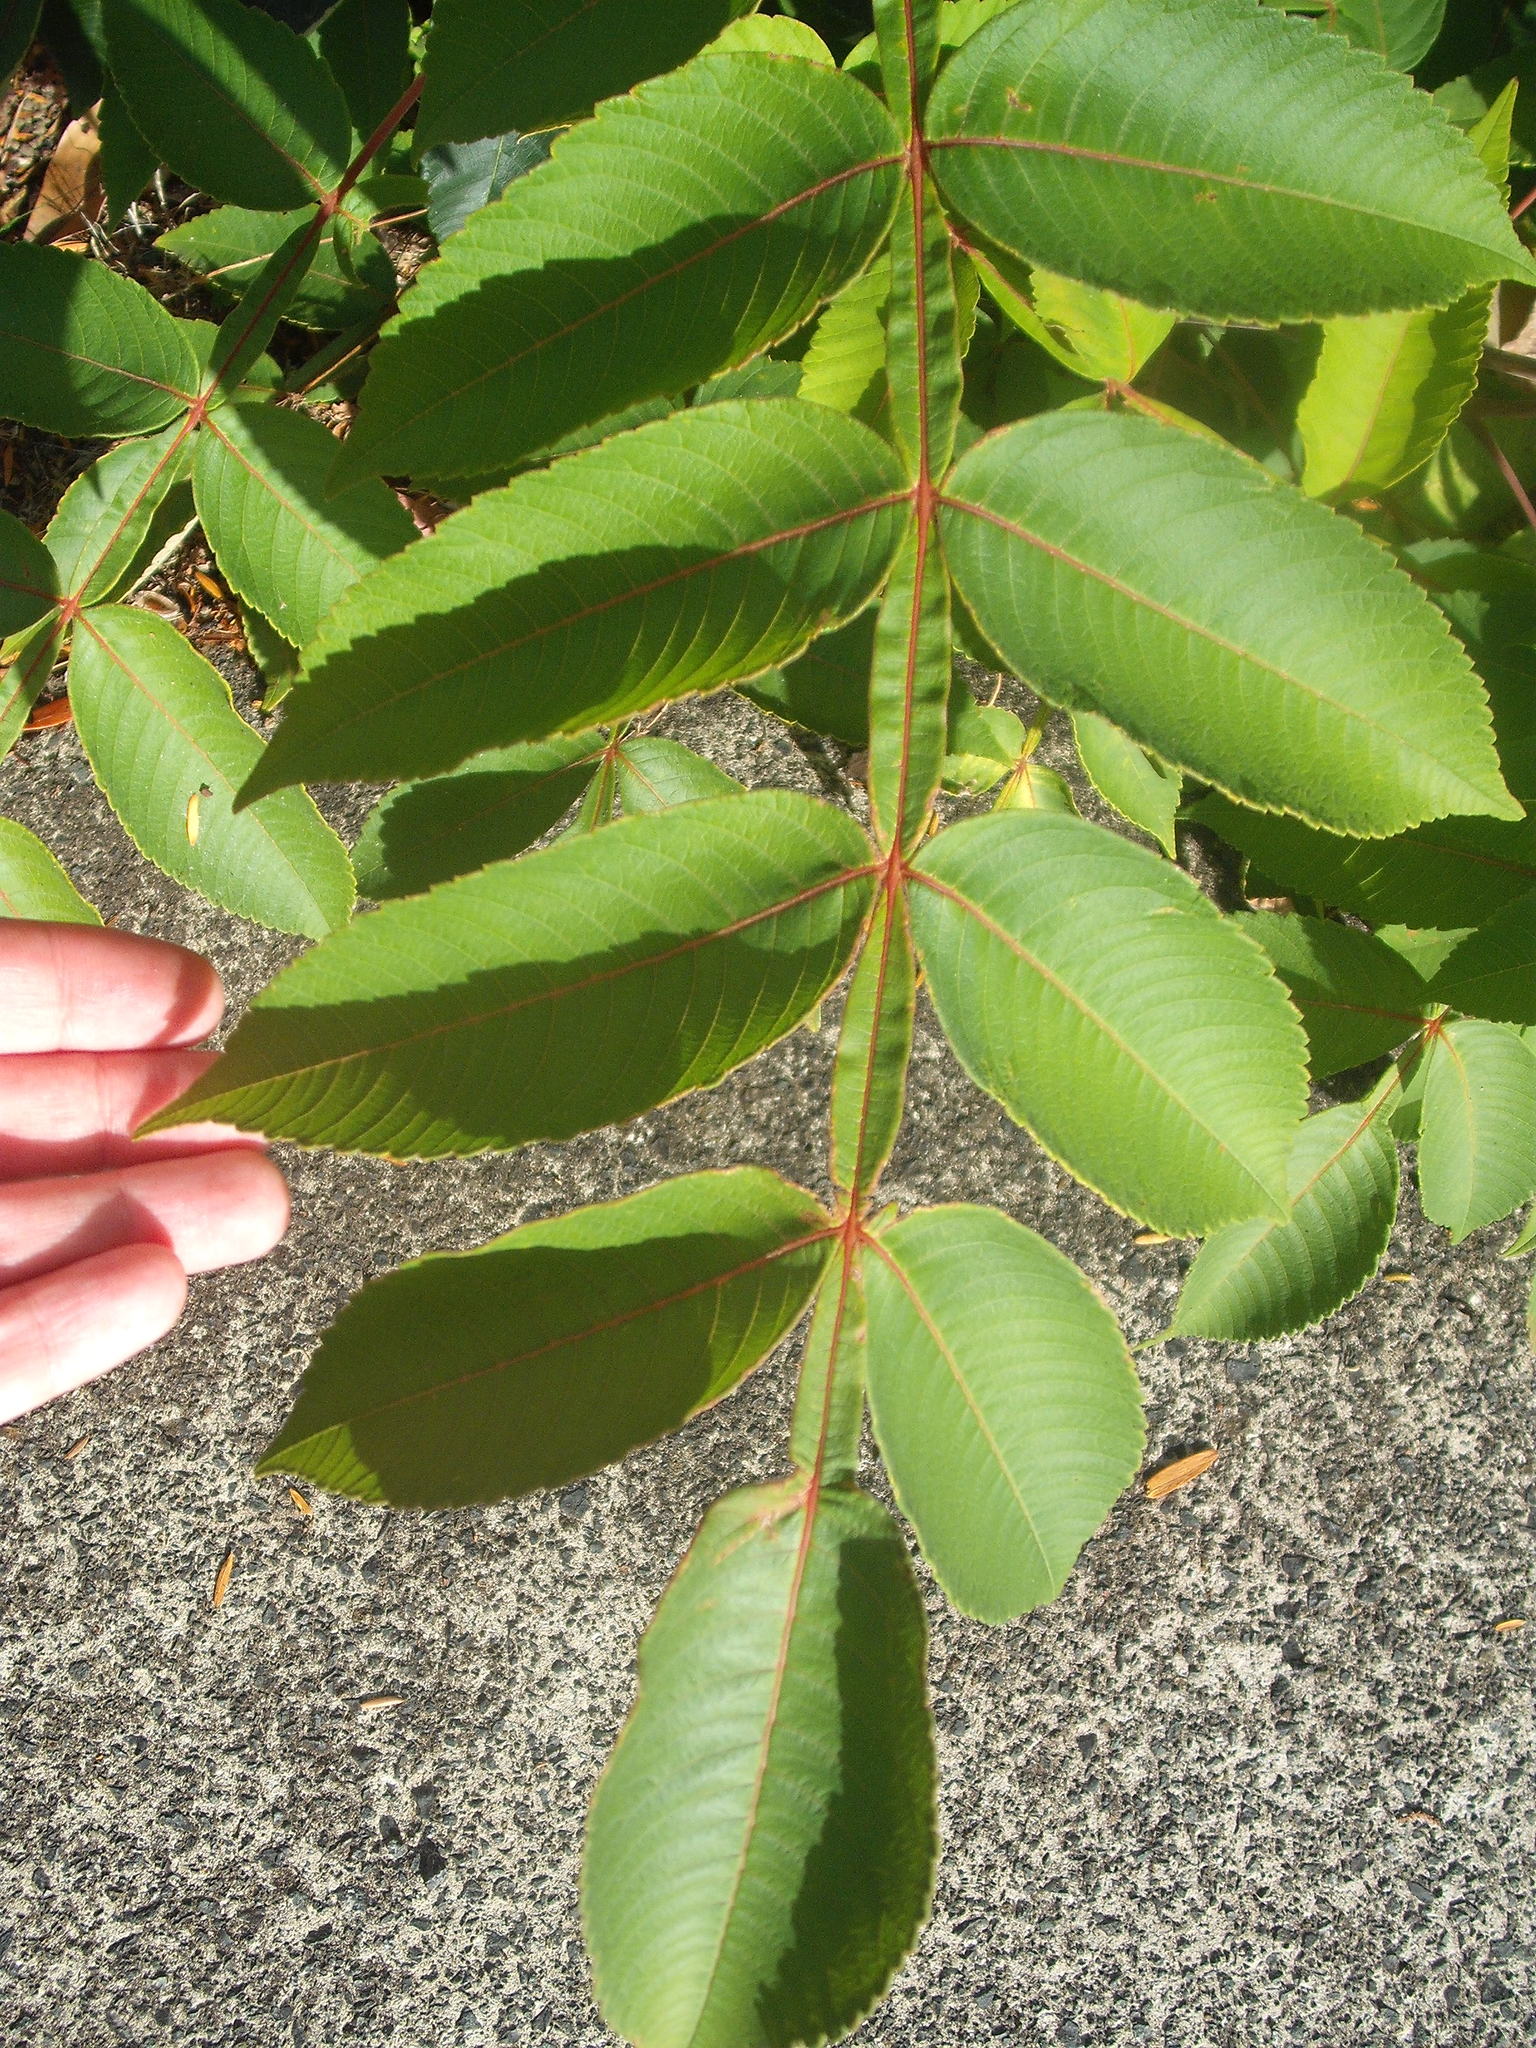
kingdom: Plantae
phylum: Tracheophyta
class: Magnoliopsida
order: Sapindales
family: Anacardiaceae
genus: Rhus
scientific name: Rhus chinensis
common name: Chinese gall
